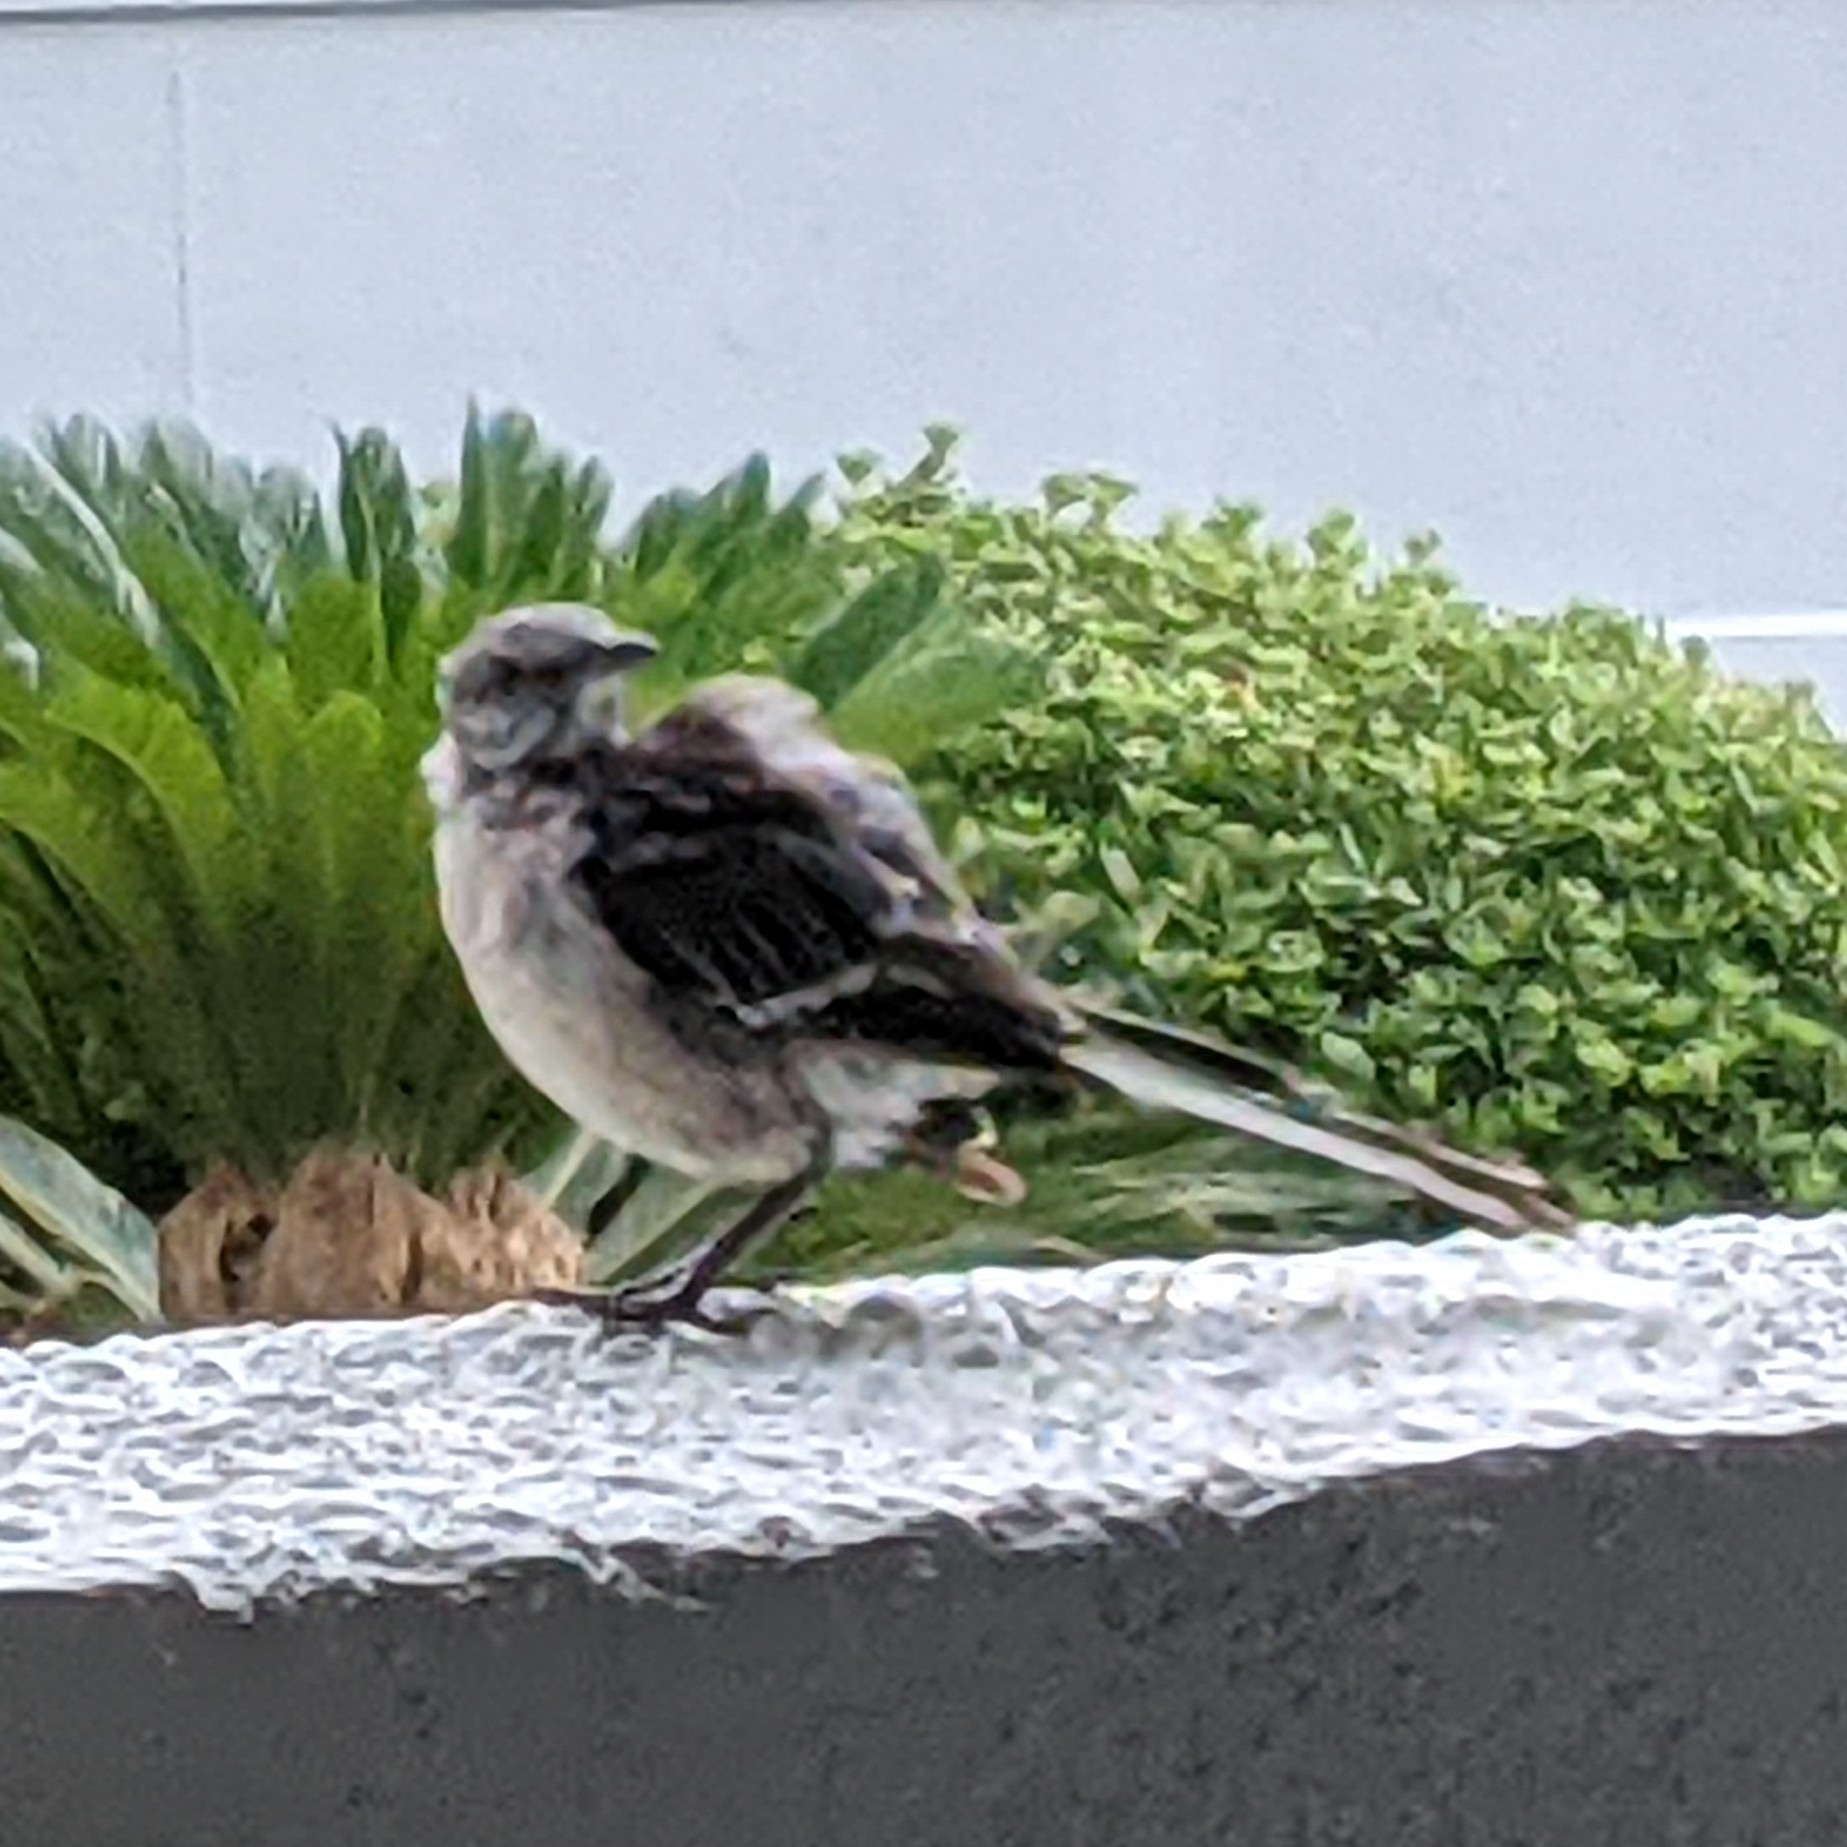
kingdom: Animalia
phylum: Chordata
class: Aves
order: Passeriformes
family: Mimidae
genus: Mimus
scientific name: Mimus polyglottos
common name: Northern mockingbird
